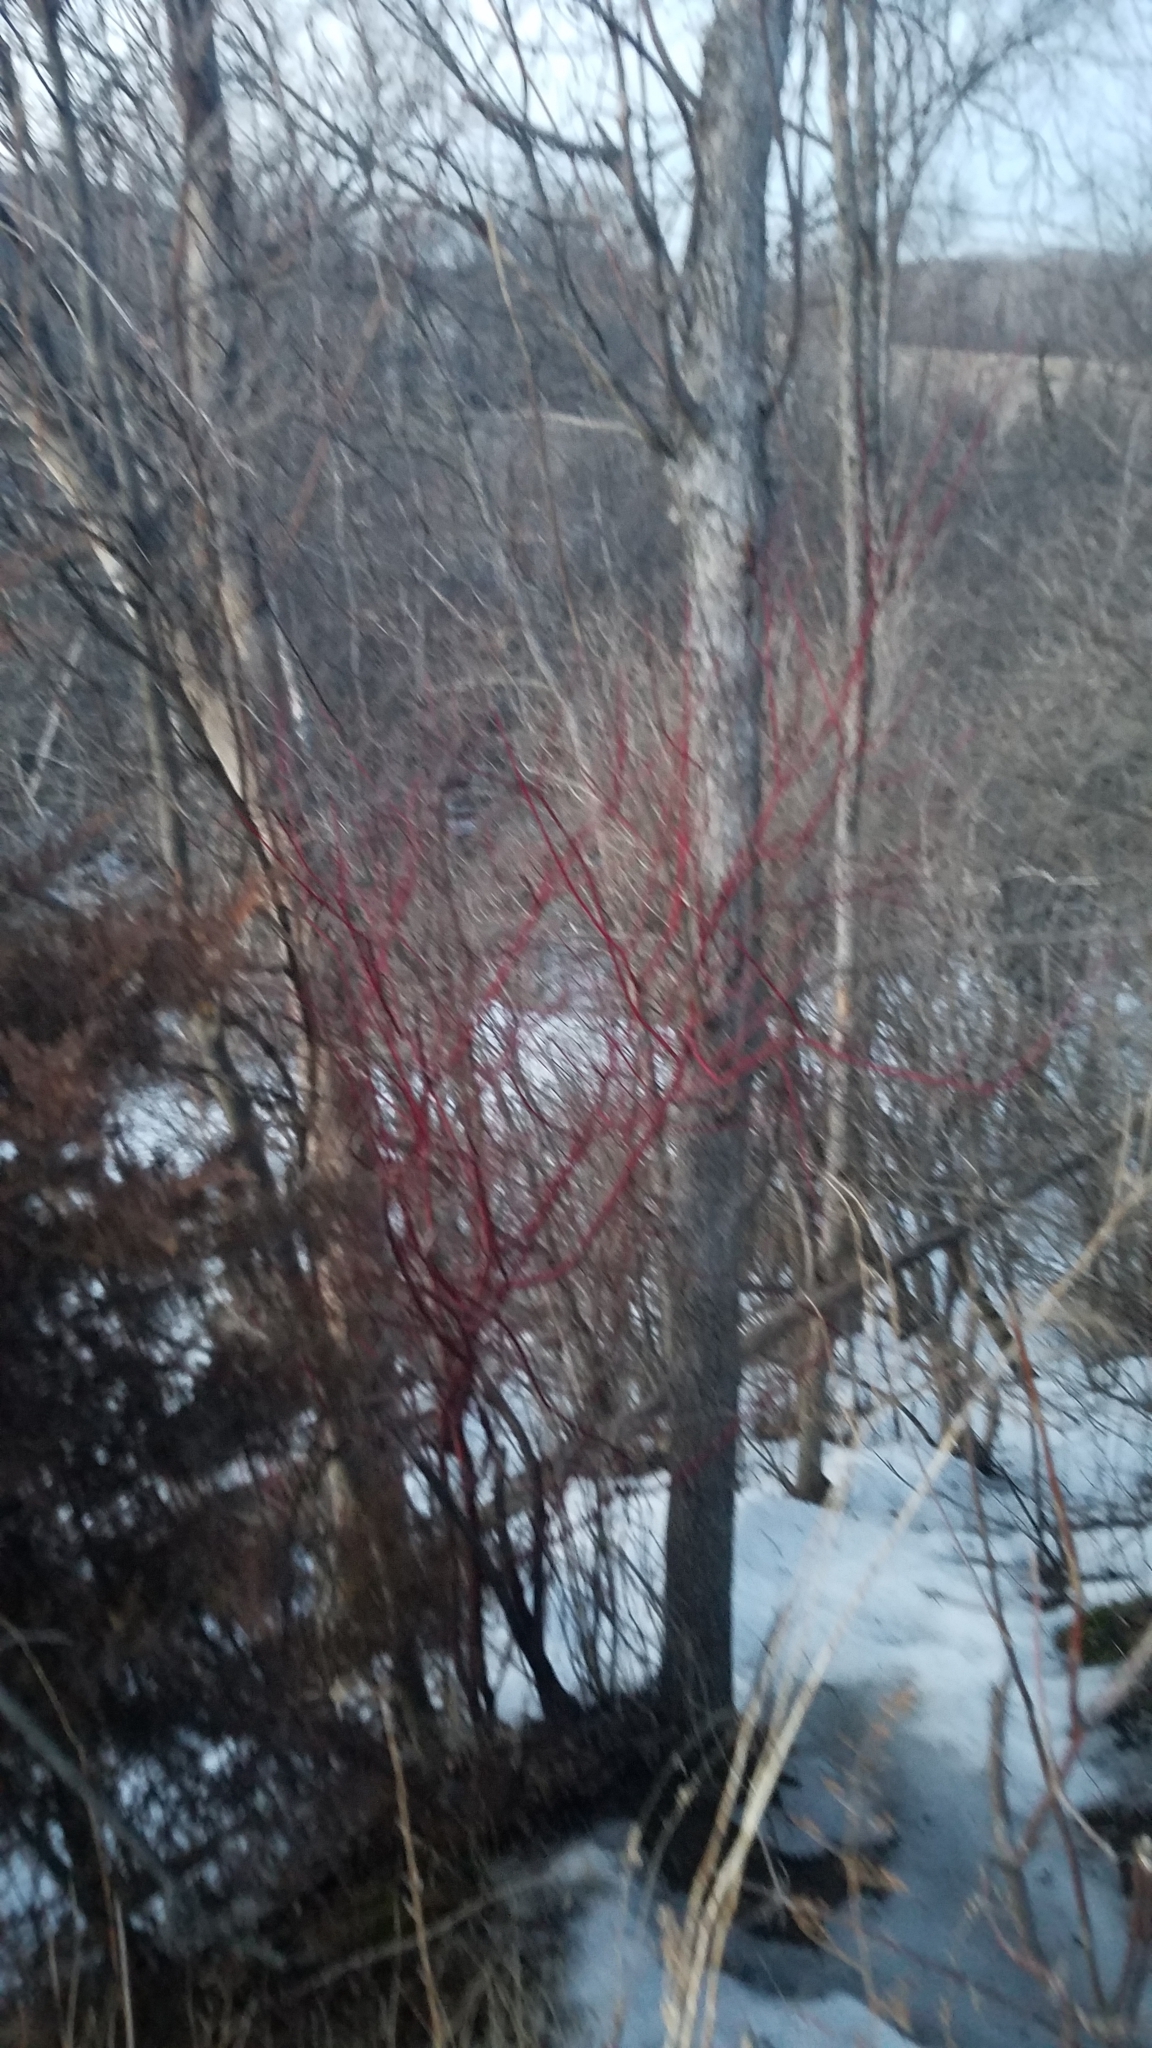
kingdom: Plantae
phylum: Tracheophyta
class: Magnoliopsida
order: Cornales
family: Cornaceae
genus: Cornus
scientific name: Cornus sericea
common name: Red-osier dogwood
